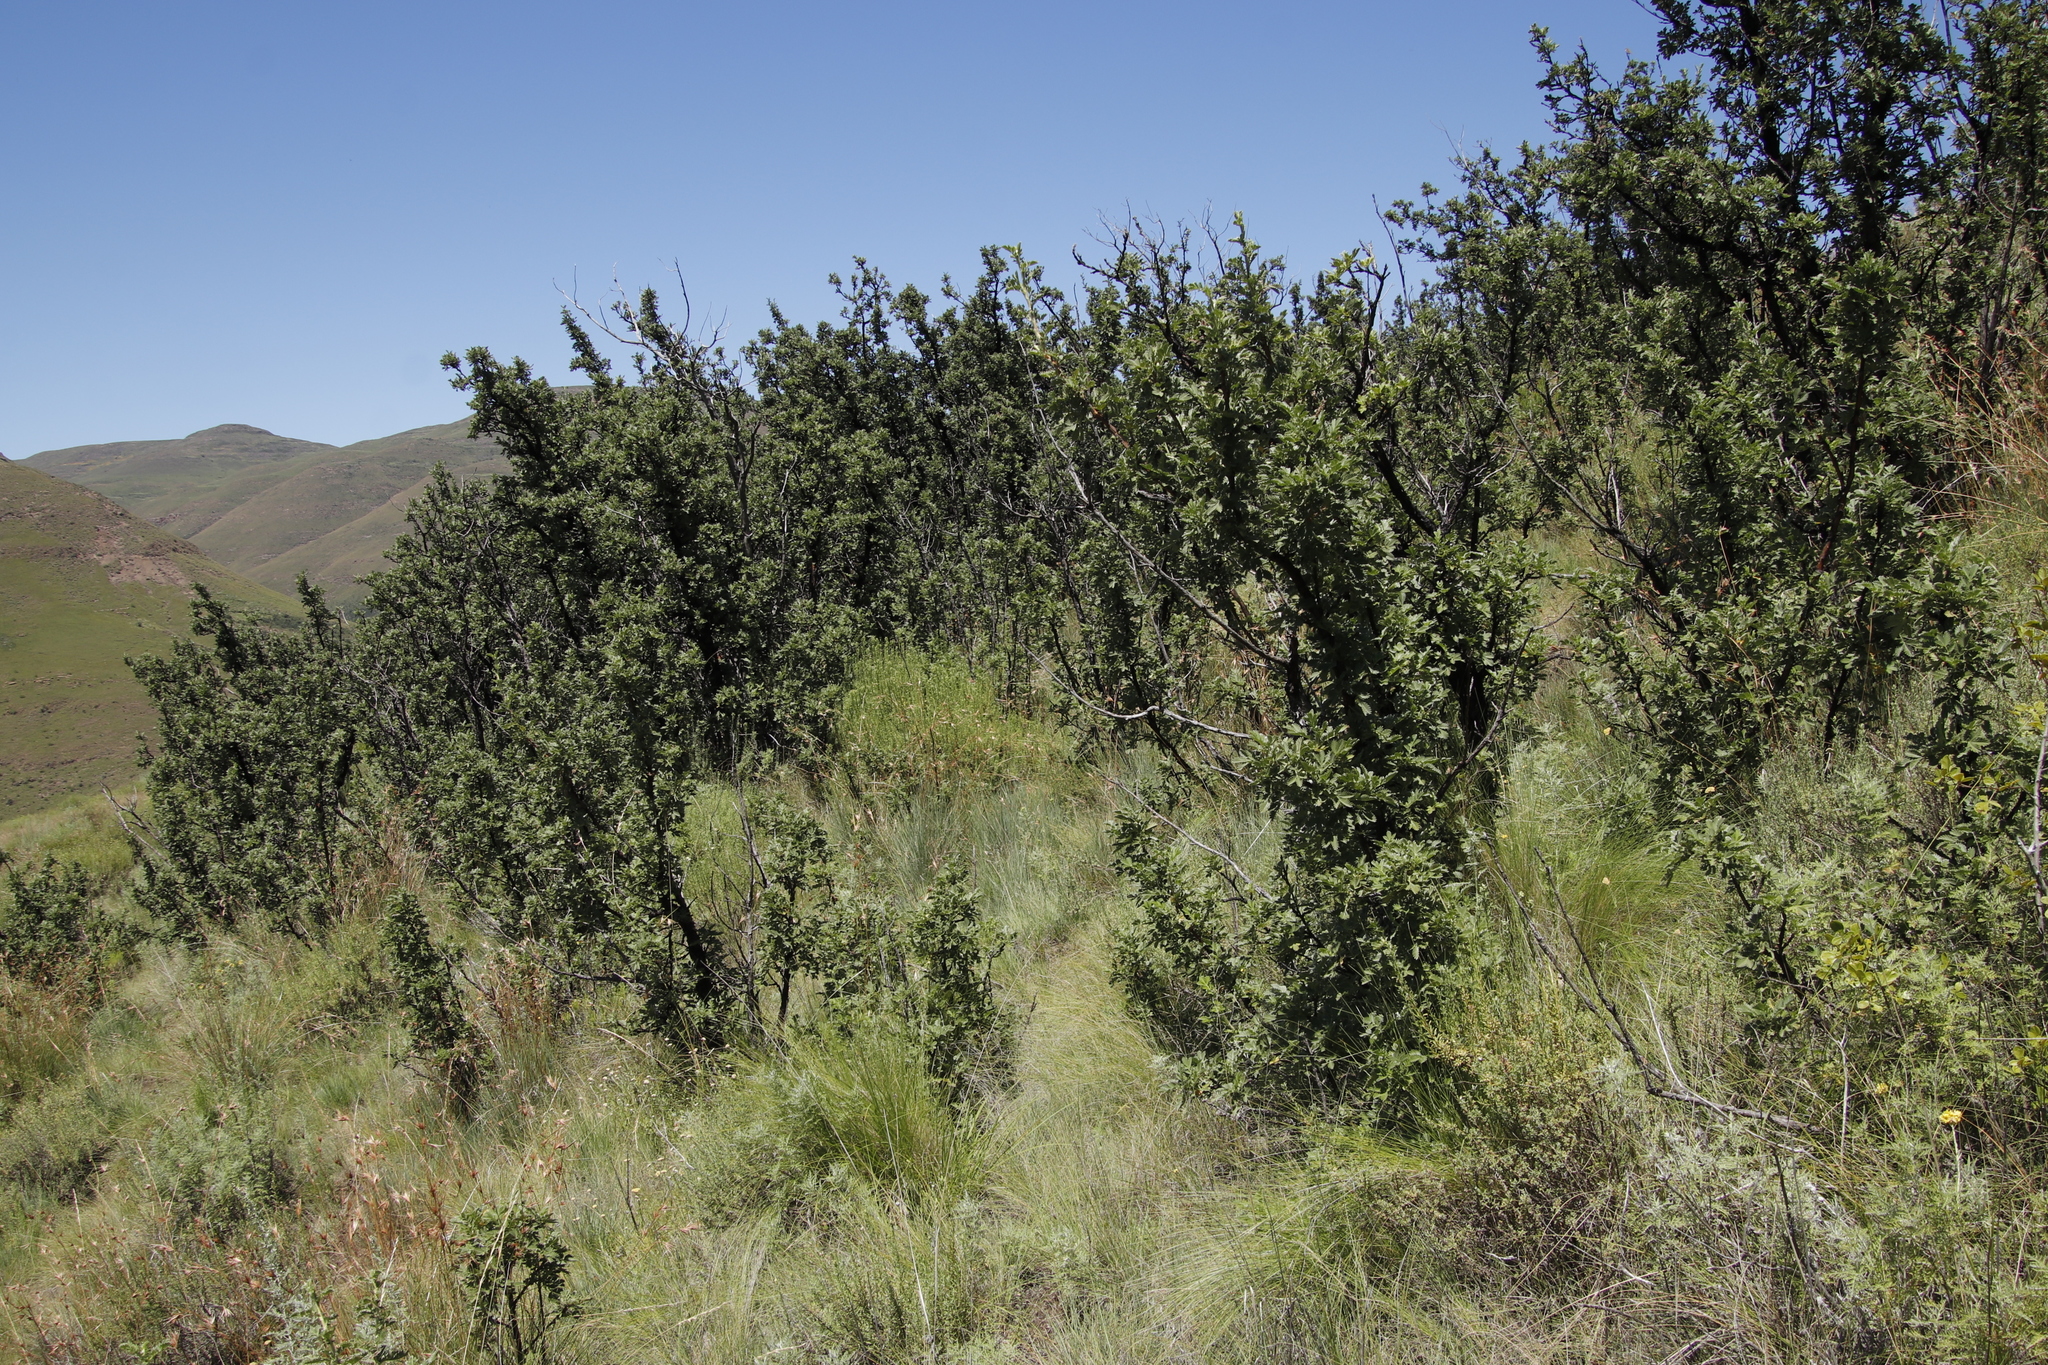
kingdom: Plantae
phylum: Tracheophyta
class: Magnoliopsida
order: Rosales
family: Rosaceae
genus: Leucosidea
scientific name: Leucosidea sericea
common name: Oldwood
